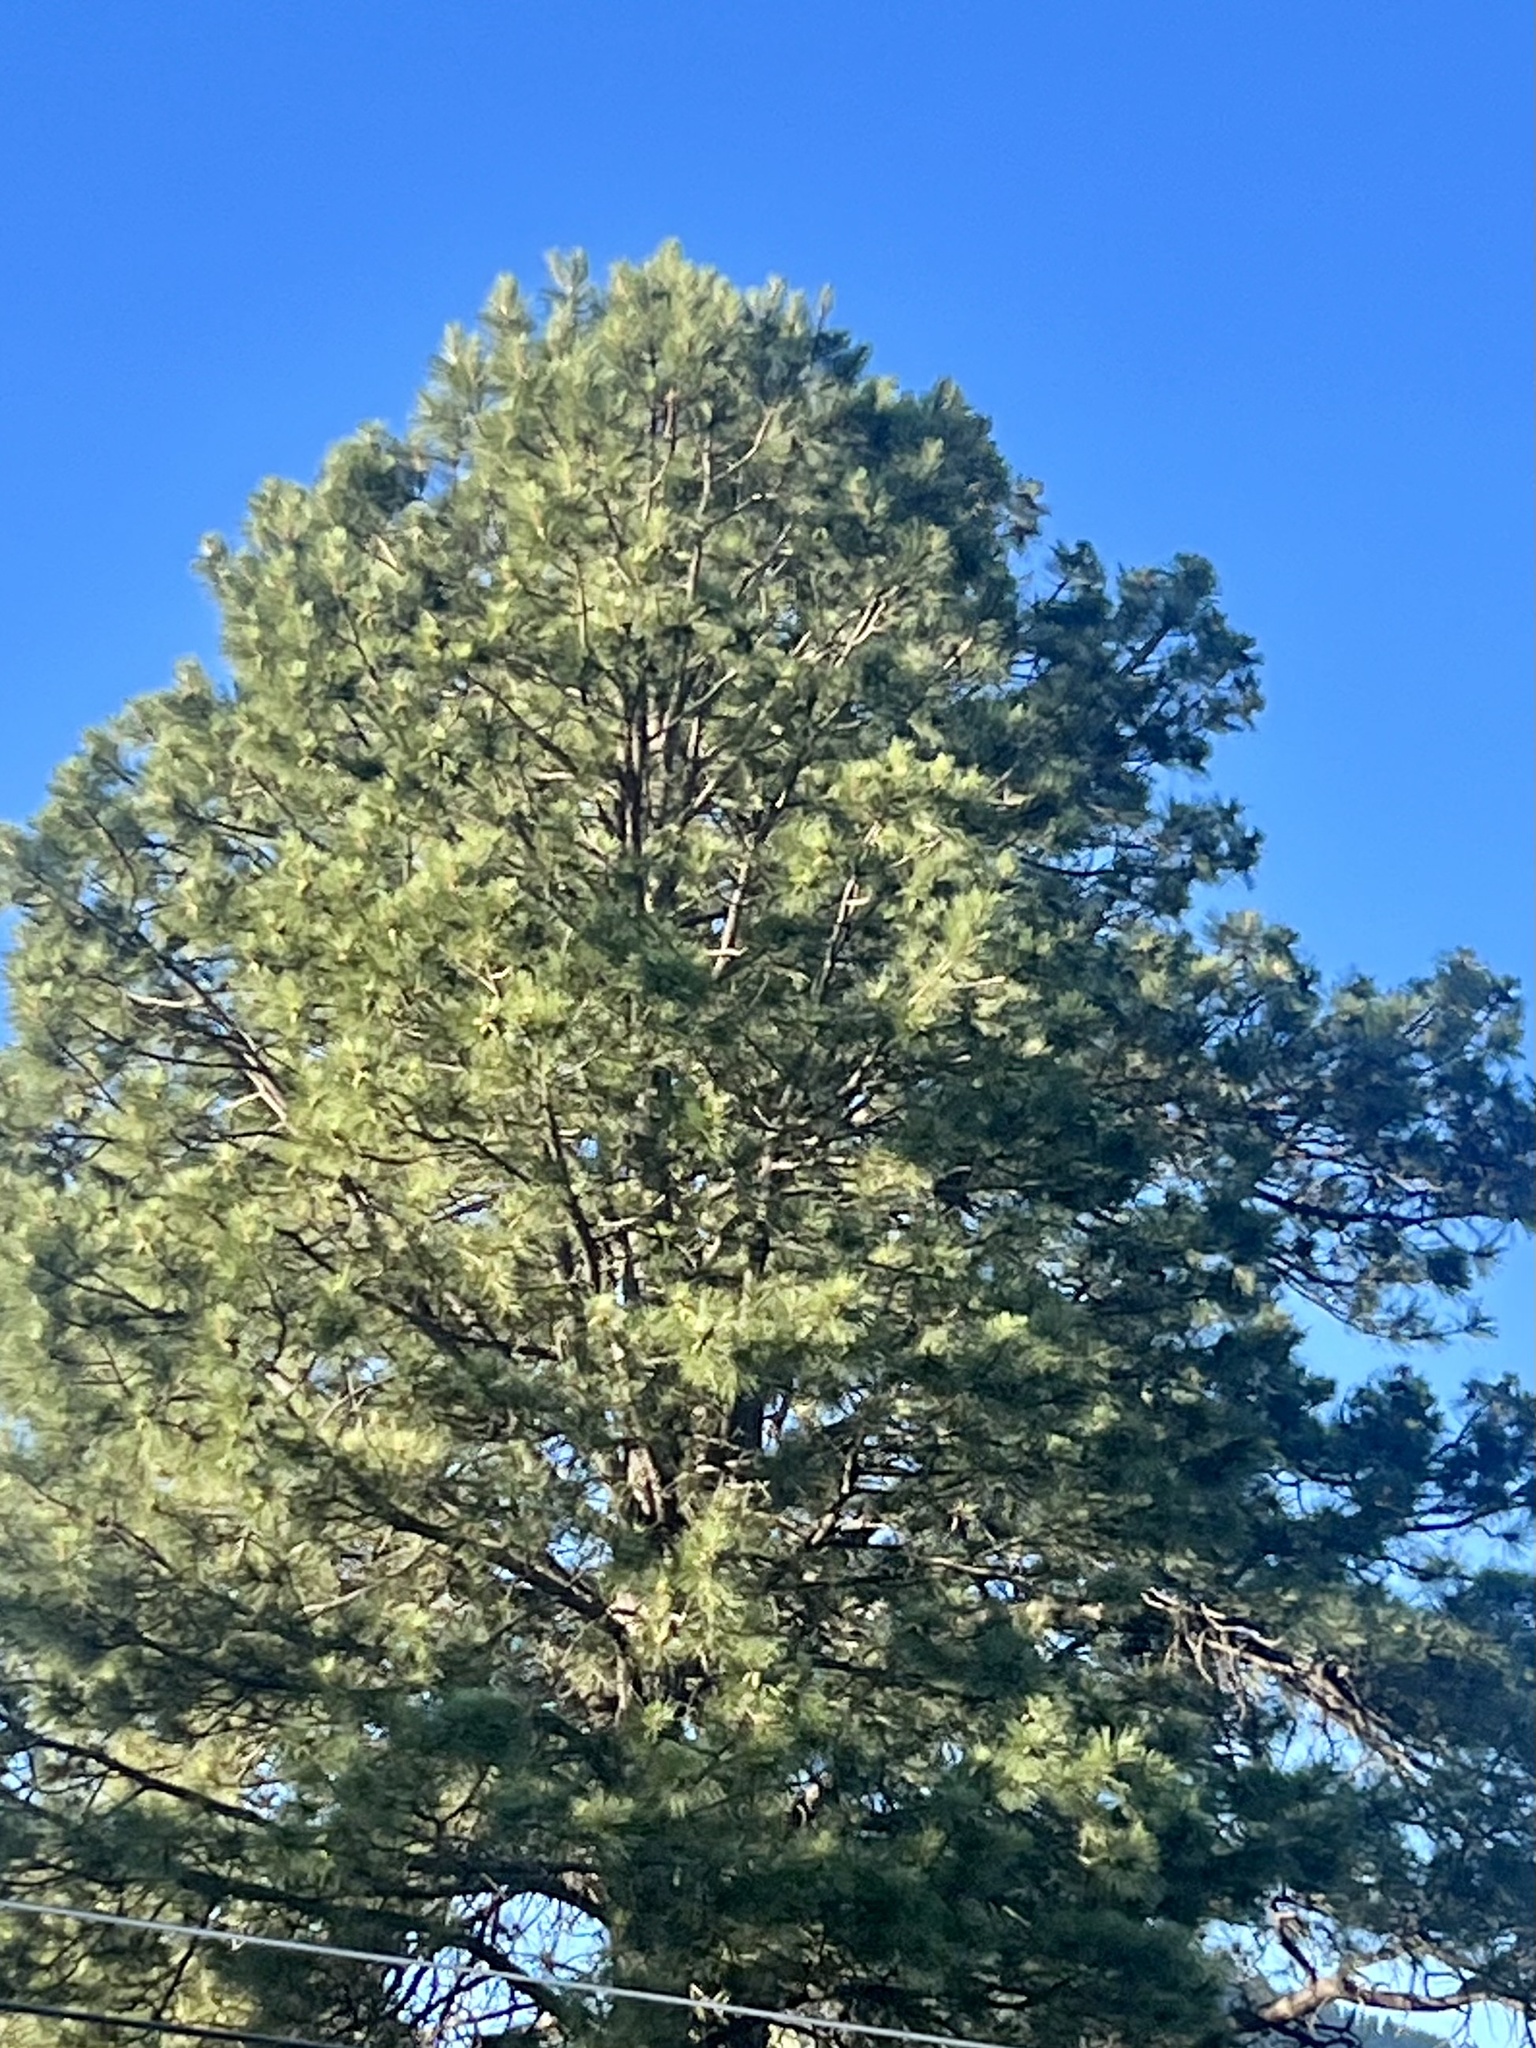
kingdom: Plantae
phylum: Tracheophyta
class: Pinopsida
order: Pinales
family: Pinaceae
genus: Pinus
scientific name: Pinus ponderosa
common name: Western yellow-pine
